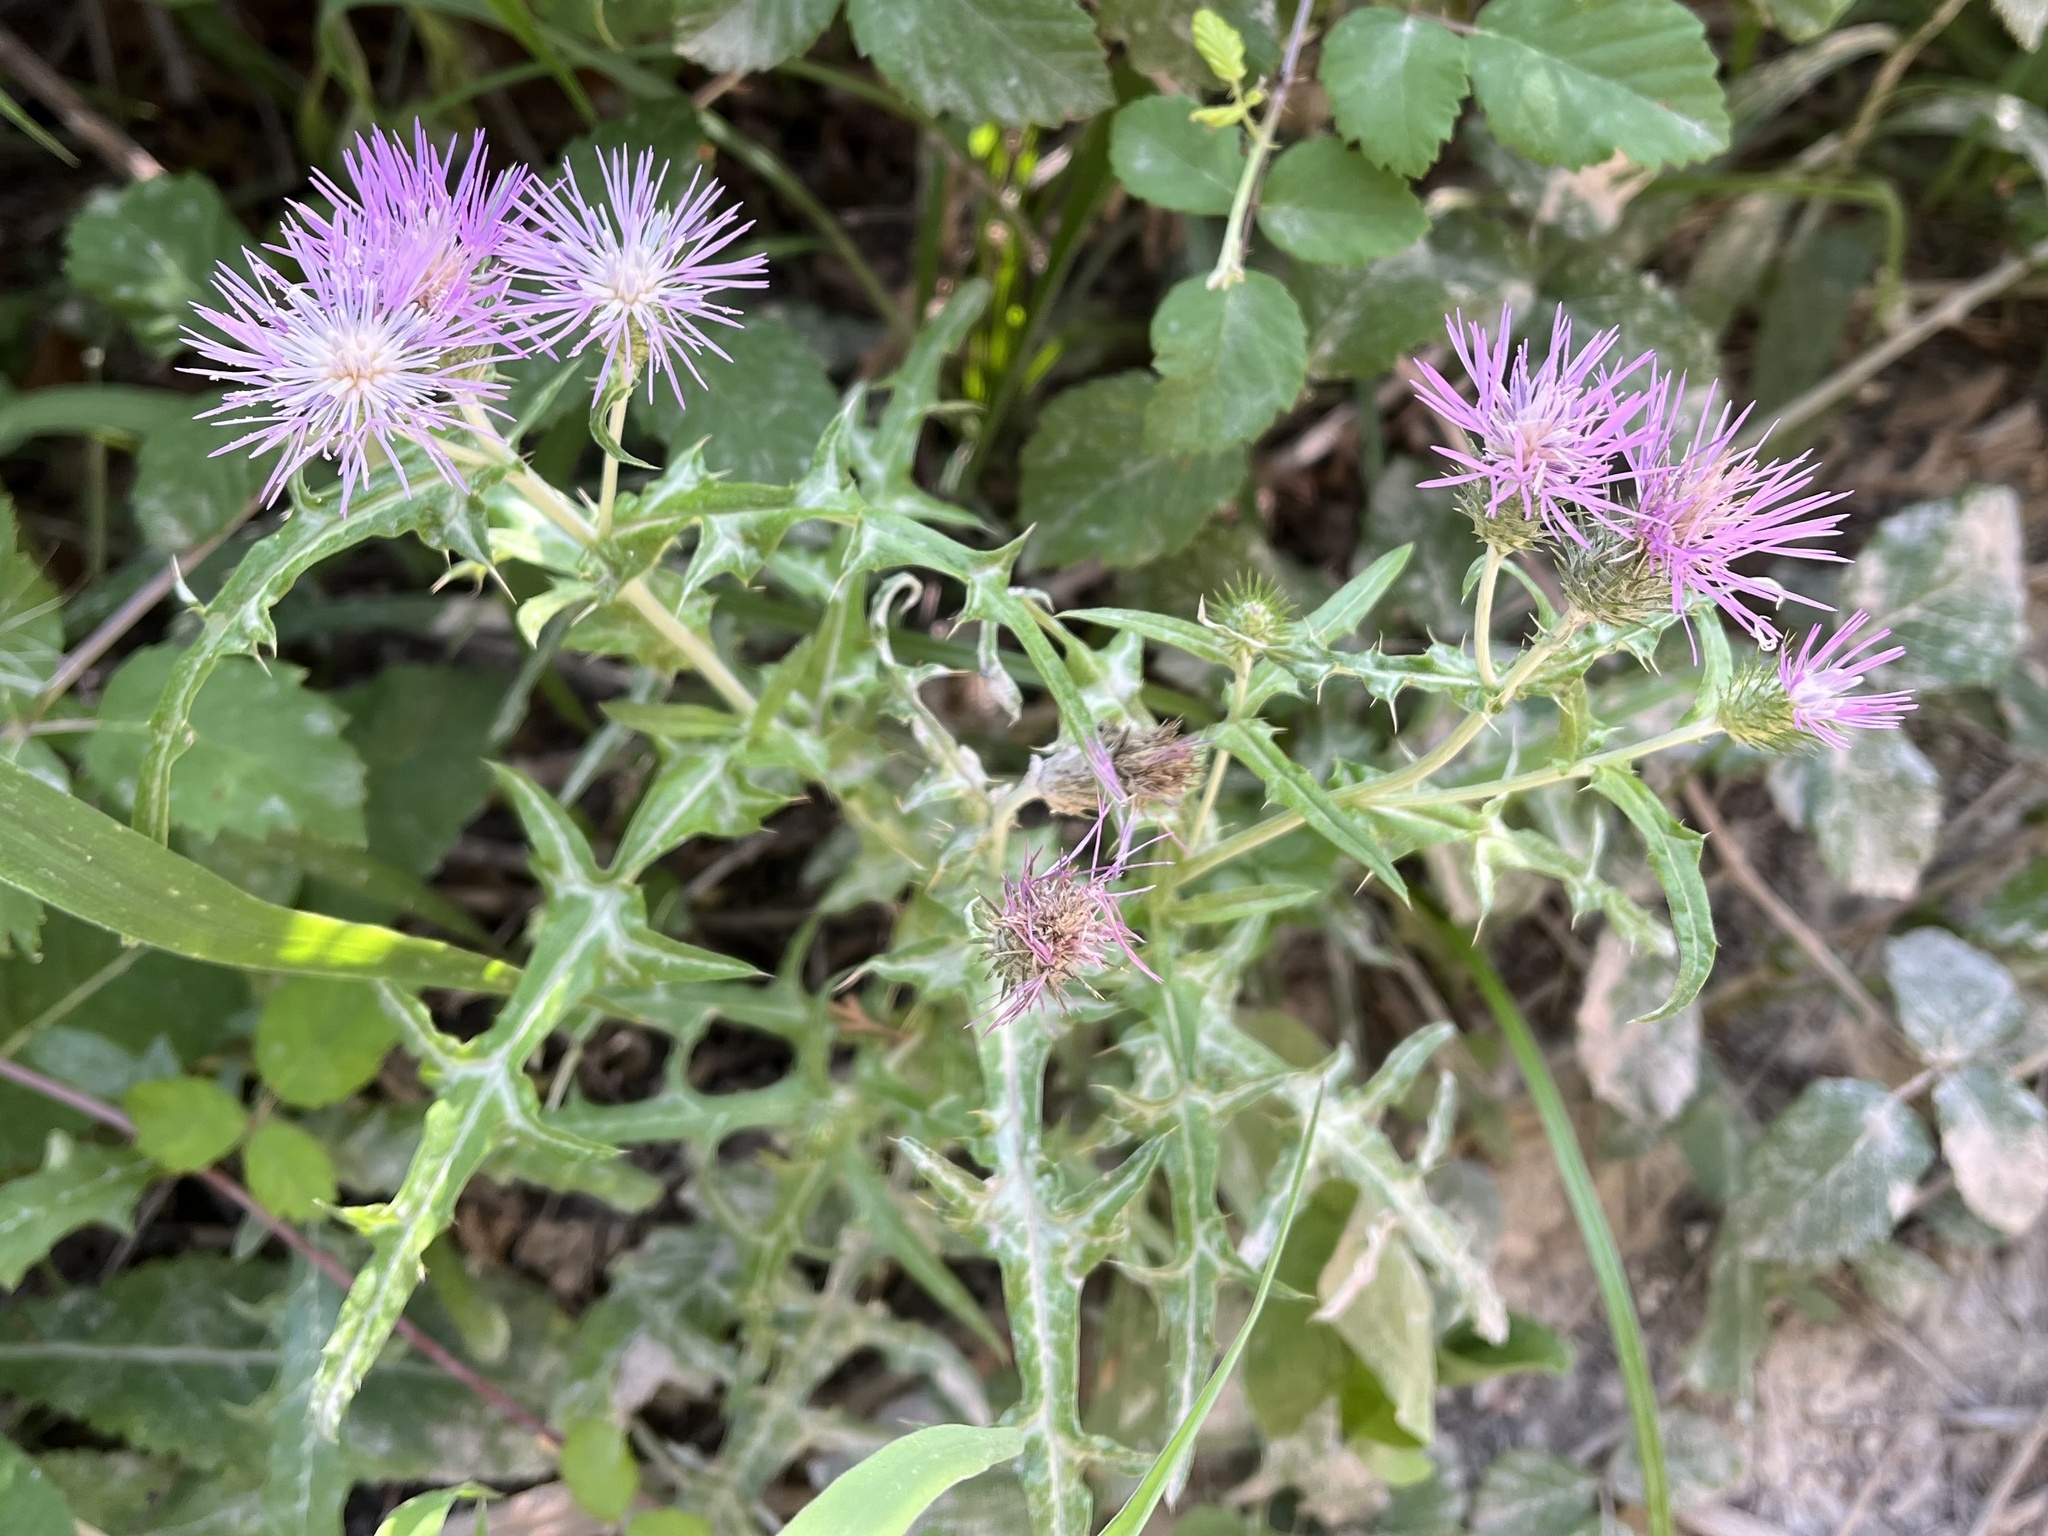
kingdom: Plantae
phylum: Tracheophyta
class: Magnoliopsida
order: Asterales
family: Asteraceae
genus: Galactites
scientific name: Galactites tomentosa
